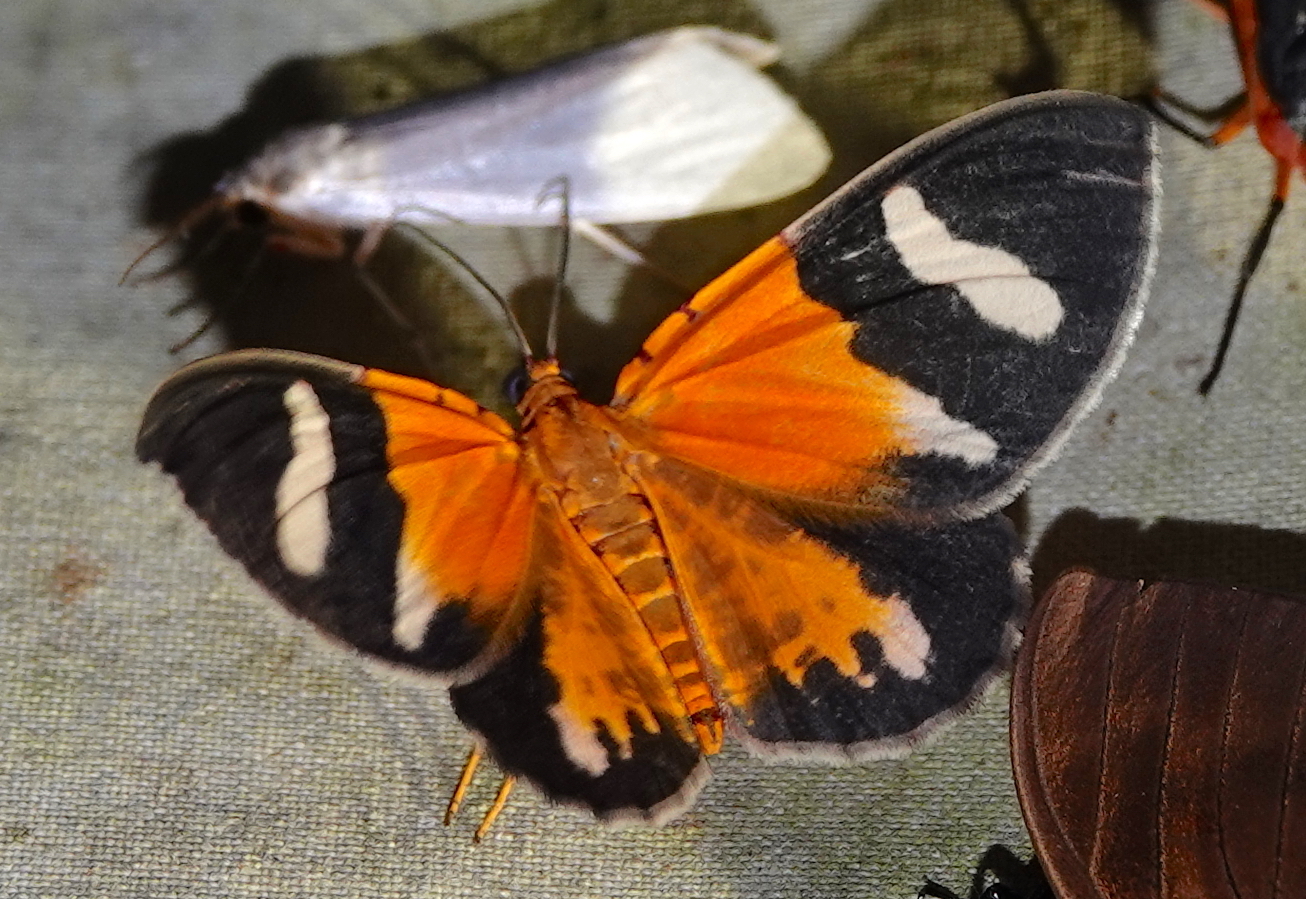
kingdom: Animalia
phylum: Arthropoda
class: Insecta
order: Lepidoptera
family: Geometridae
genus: Hagnagora
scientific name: Hagnagora croceitincta
